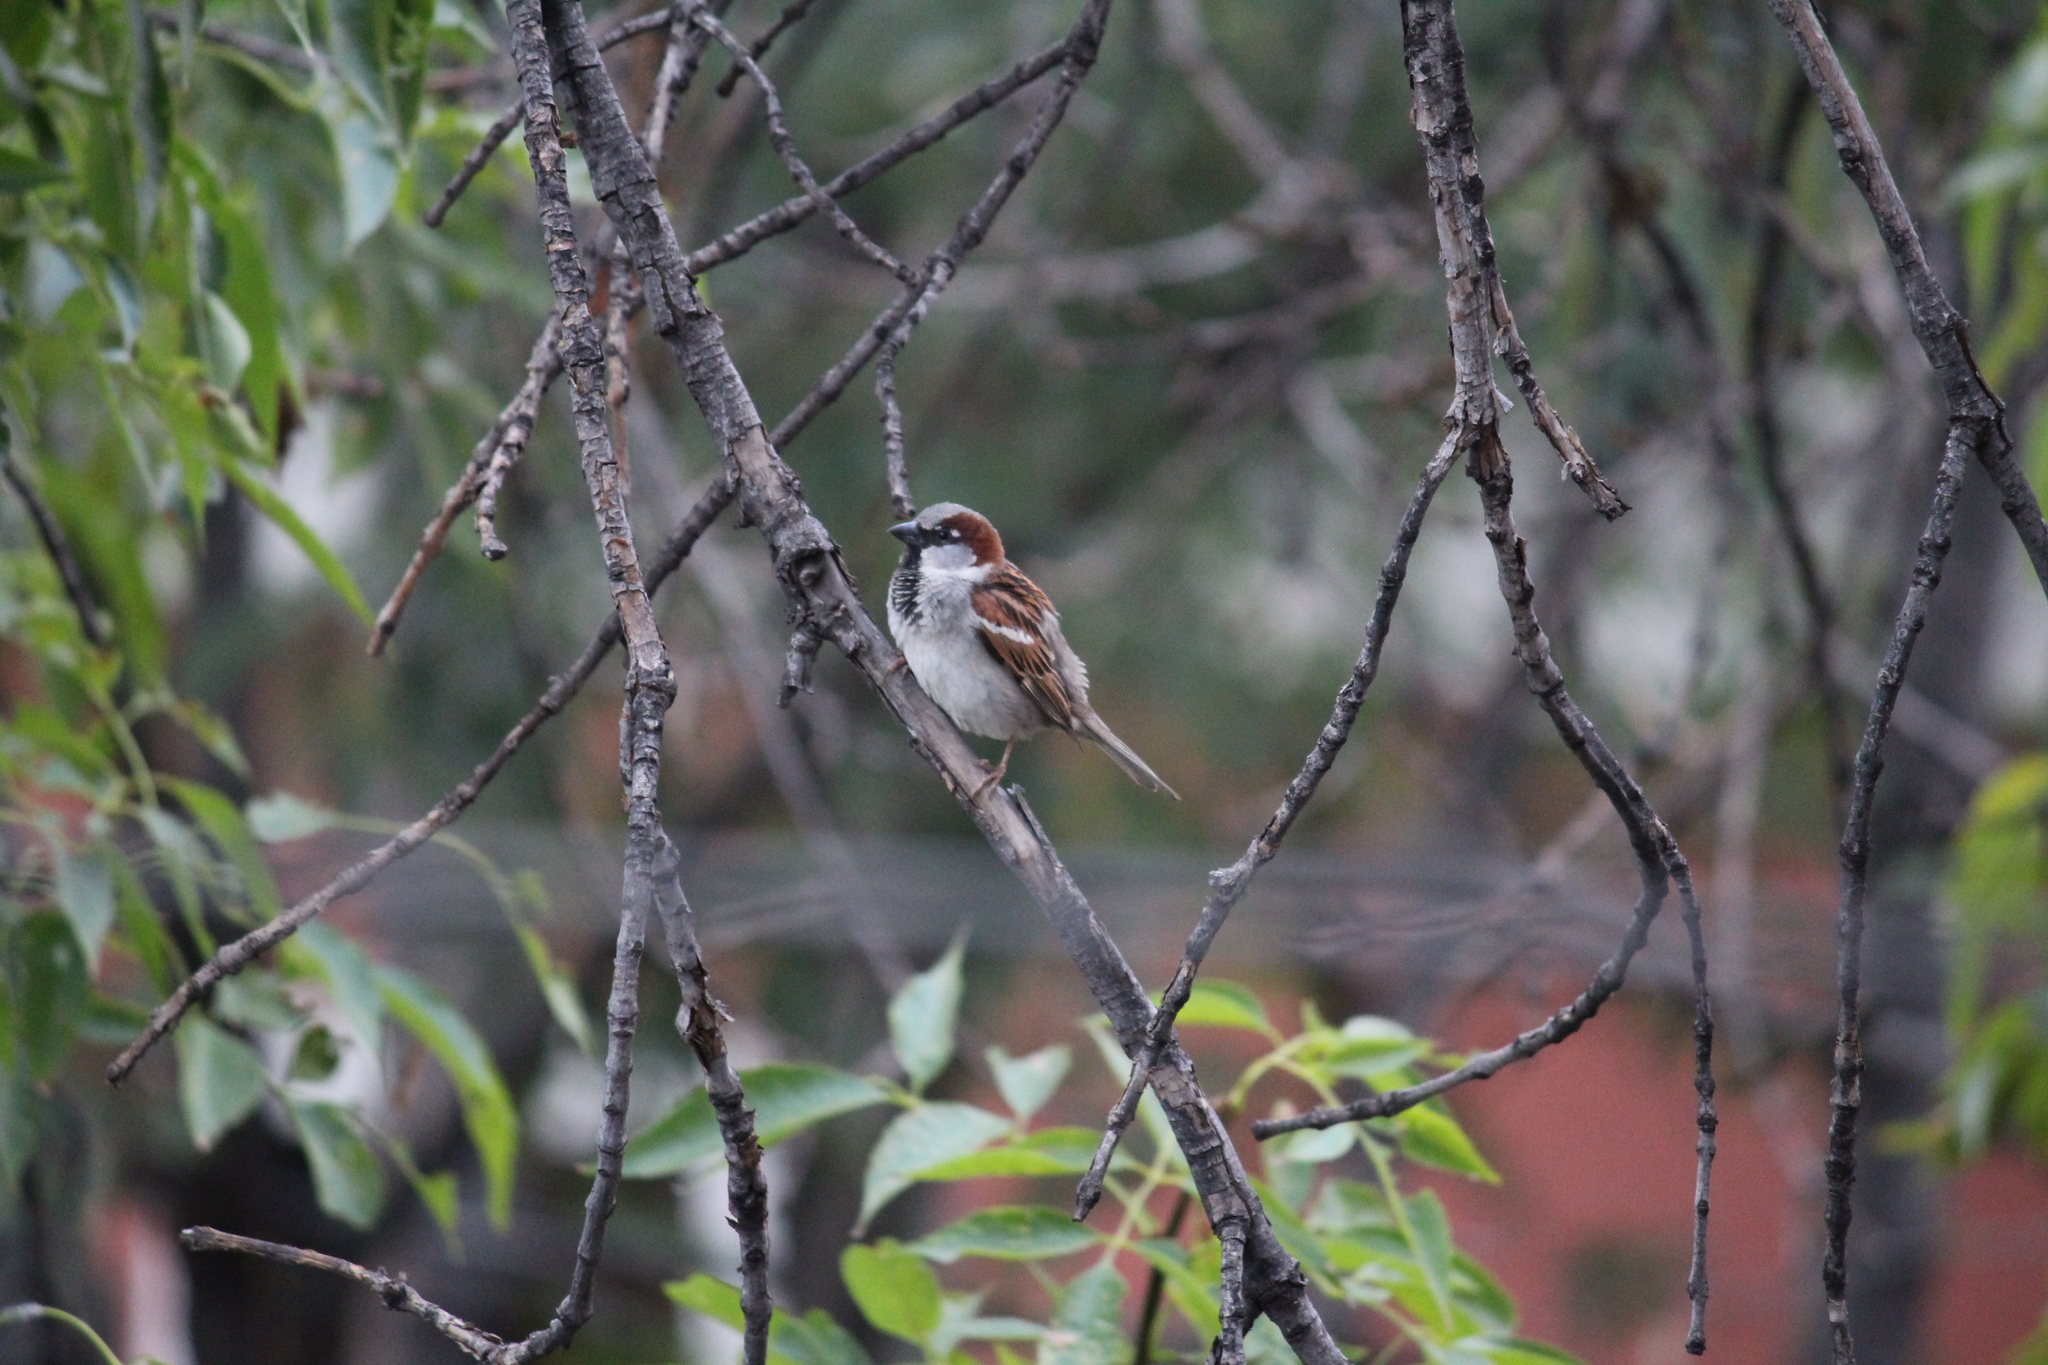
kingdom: Animalia
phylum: Chordata
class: Aves
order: Passeriformes
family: Passeridae
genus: Passer
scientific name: Passer domesticus
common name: House sparrow
